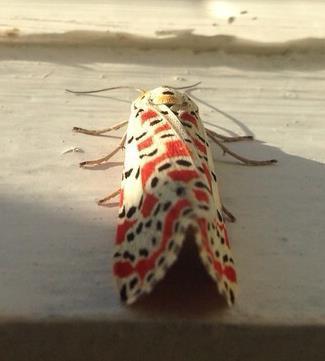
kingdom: Animalia
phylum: Arthropoda
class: Insecta
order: Lepidoptera
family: Erebidae
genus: Utetheisa
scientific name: Utetheisa pulchella
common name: Crimson speckled
